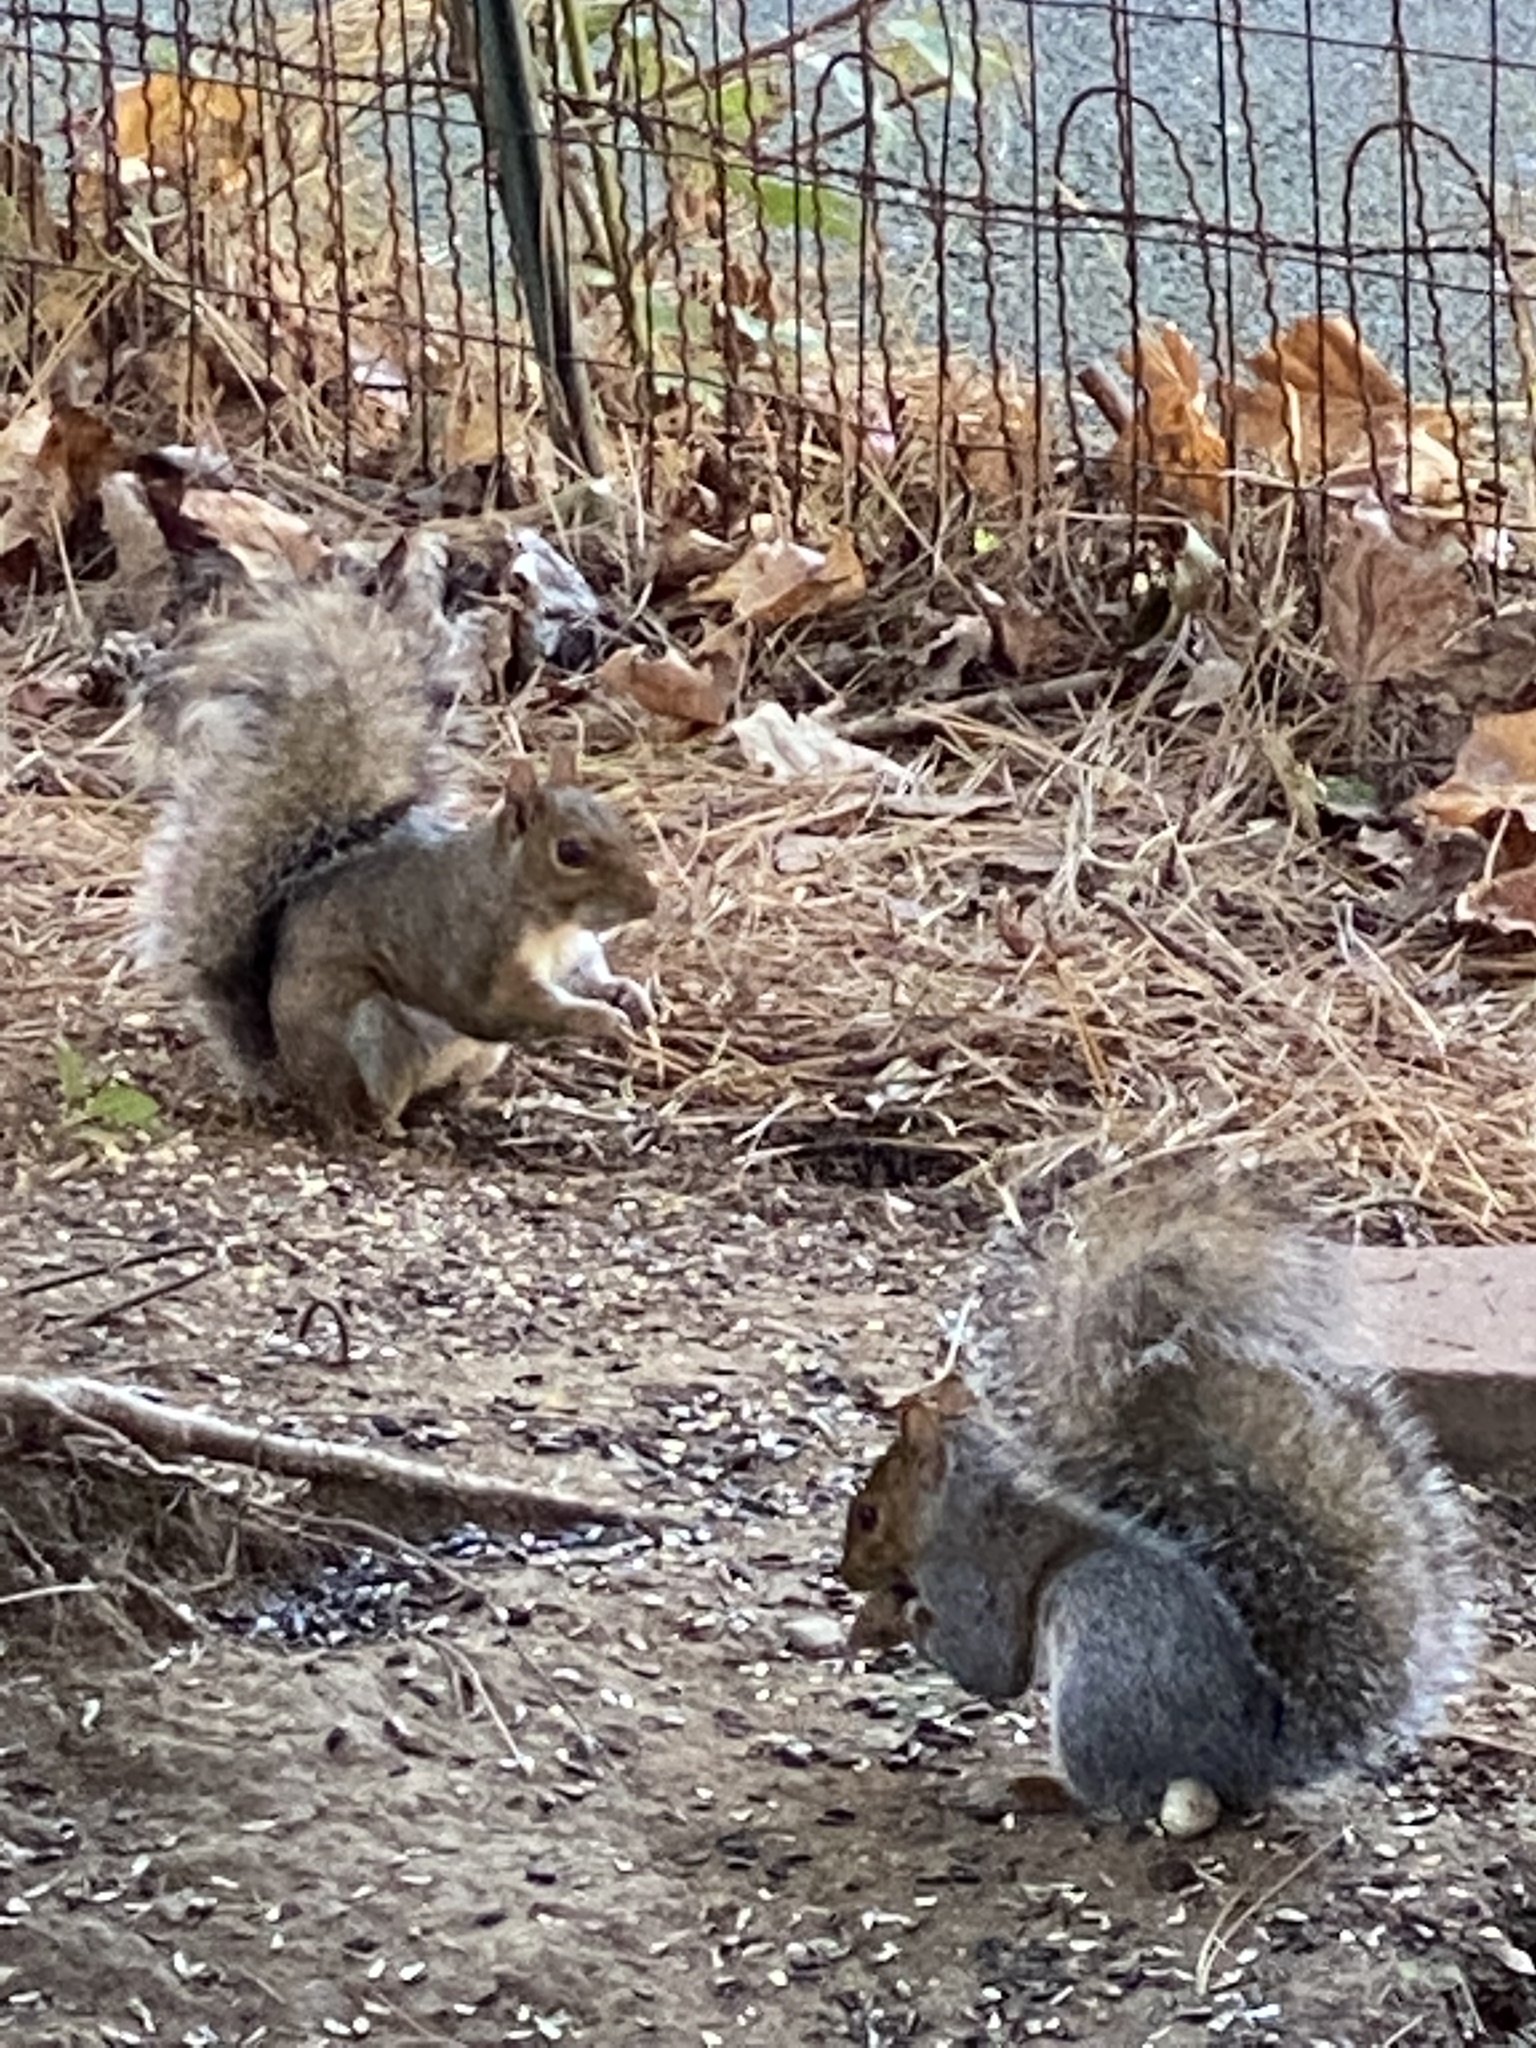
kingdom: Animalia
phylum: Chordata
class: Mammalia
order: Rodentia
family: Sciuridae
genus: Sciurus
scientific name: Sciurus carolinensis
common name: Eastern gray squirrel
